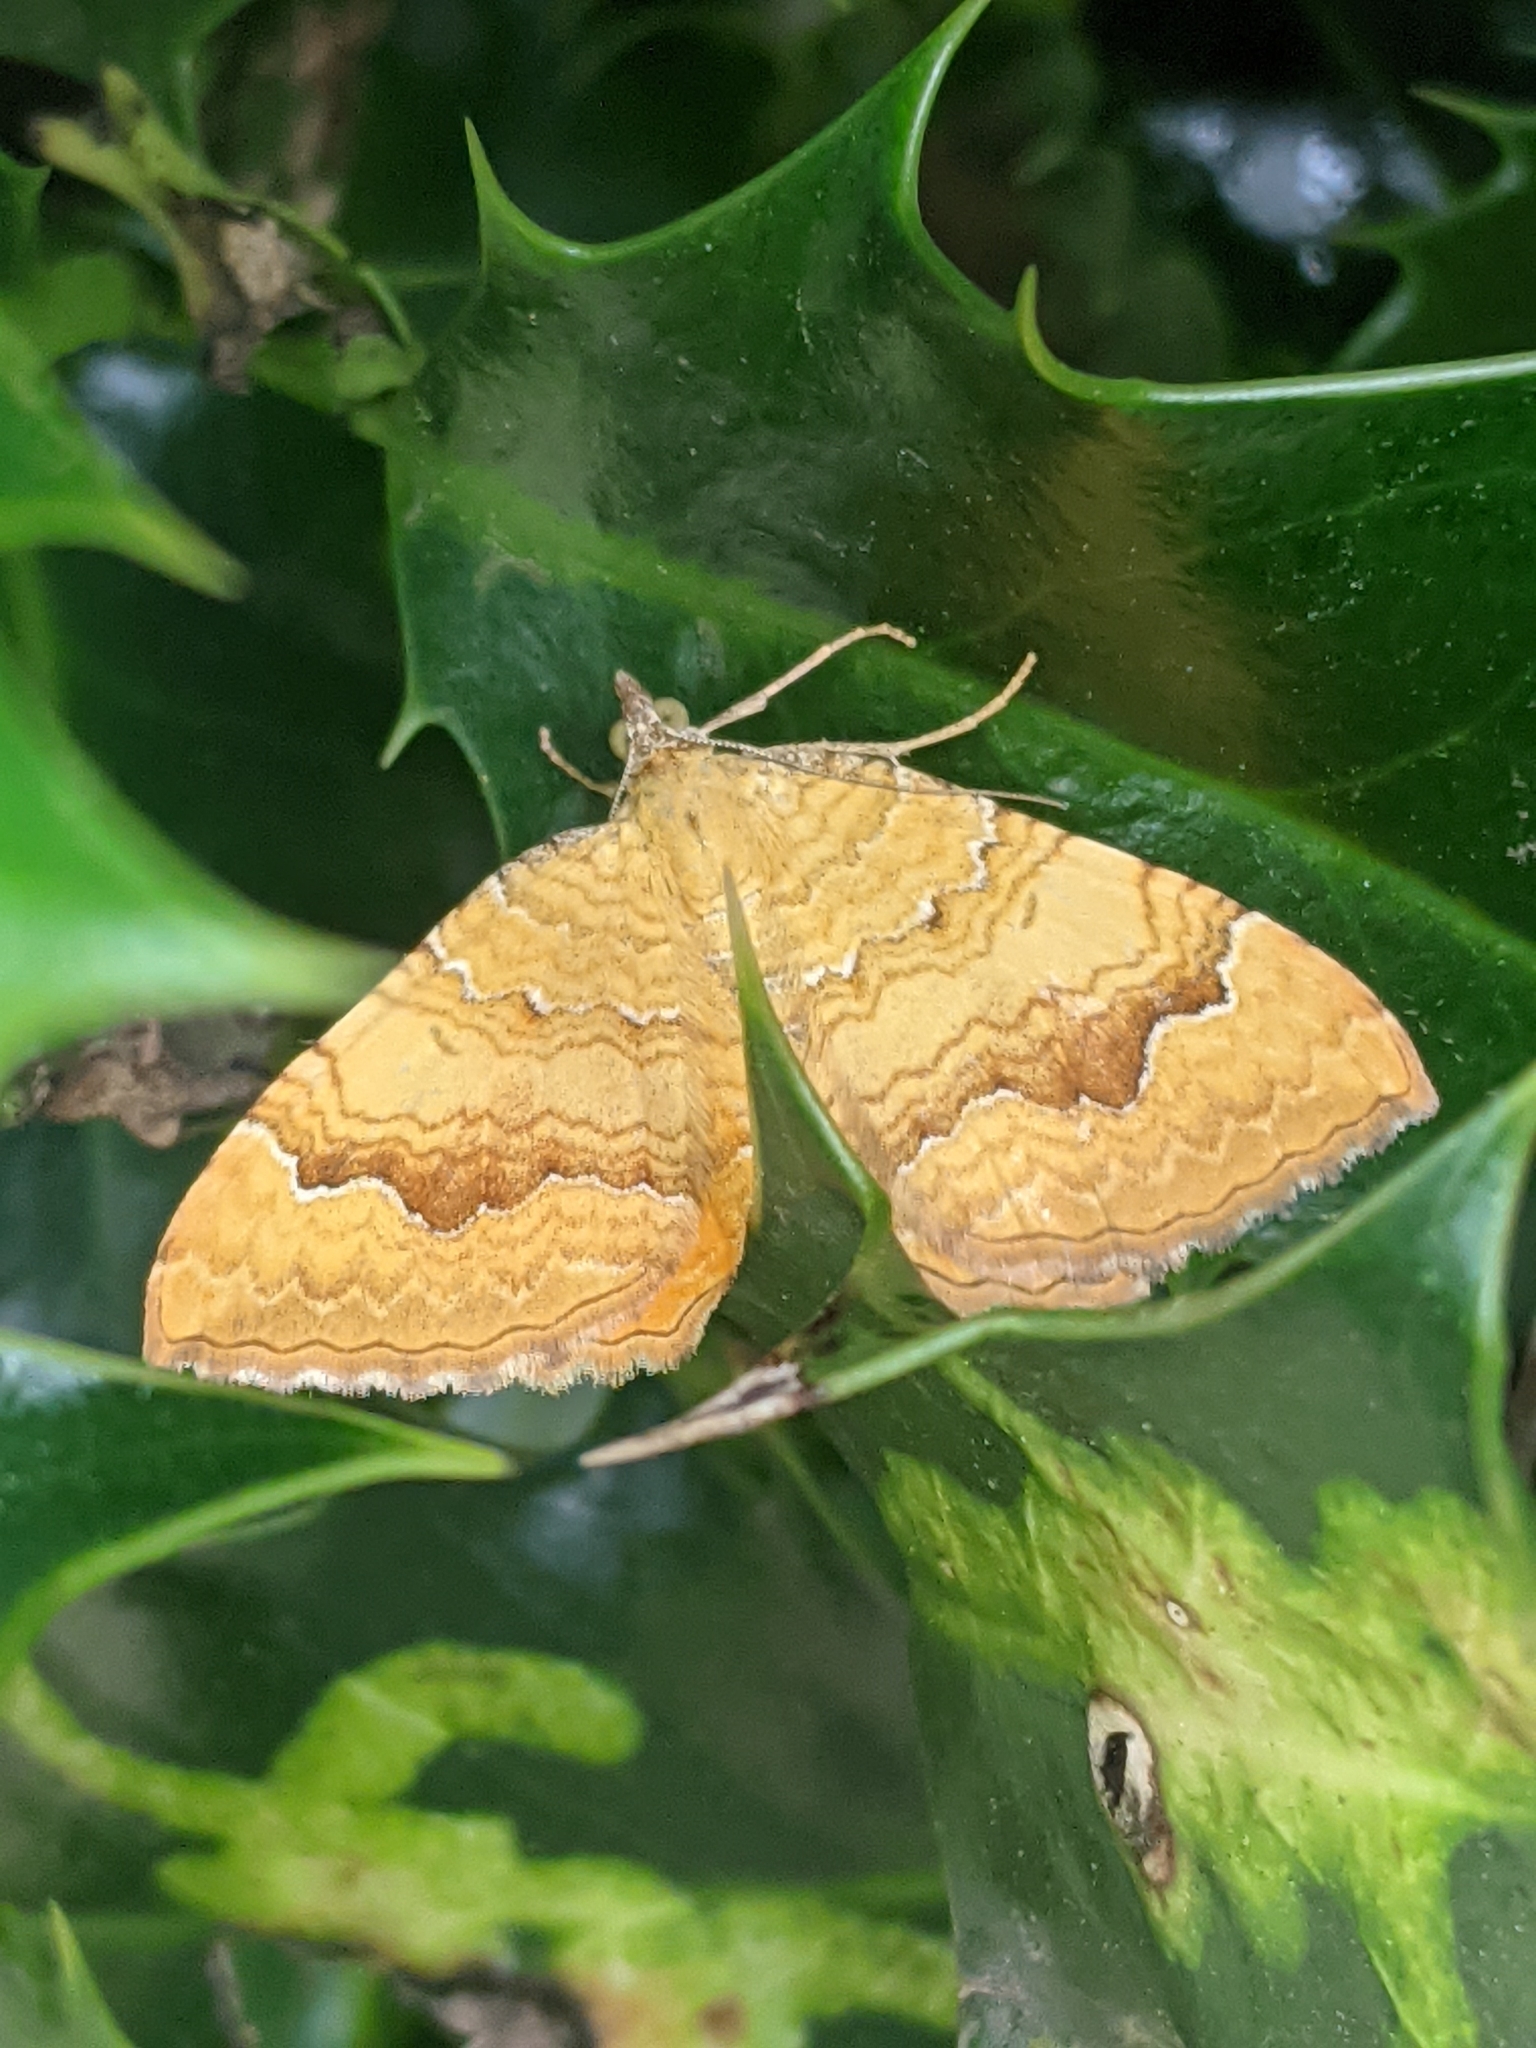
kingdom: Animalia
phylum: Arthropoda
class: Insecta
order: Lepidoptera
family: Geometridae
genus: Camptogramma
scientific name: Camptogramma bilineata
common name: Yellow shell
